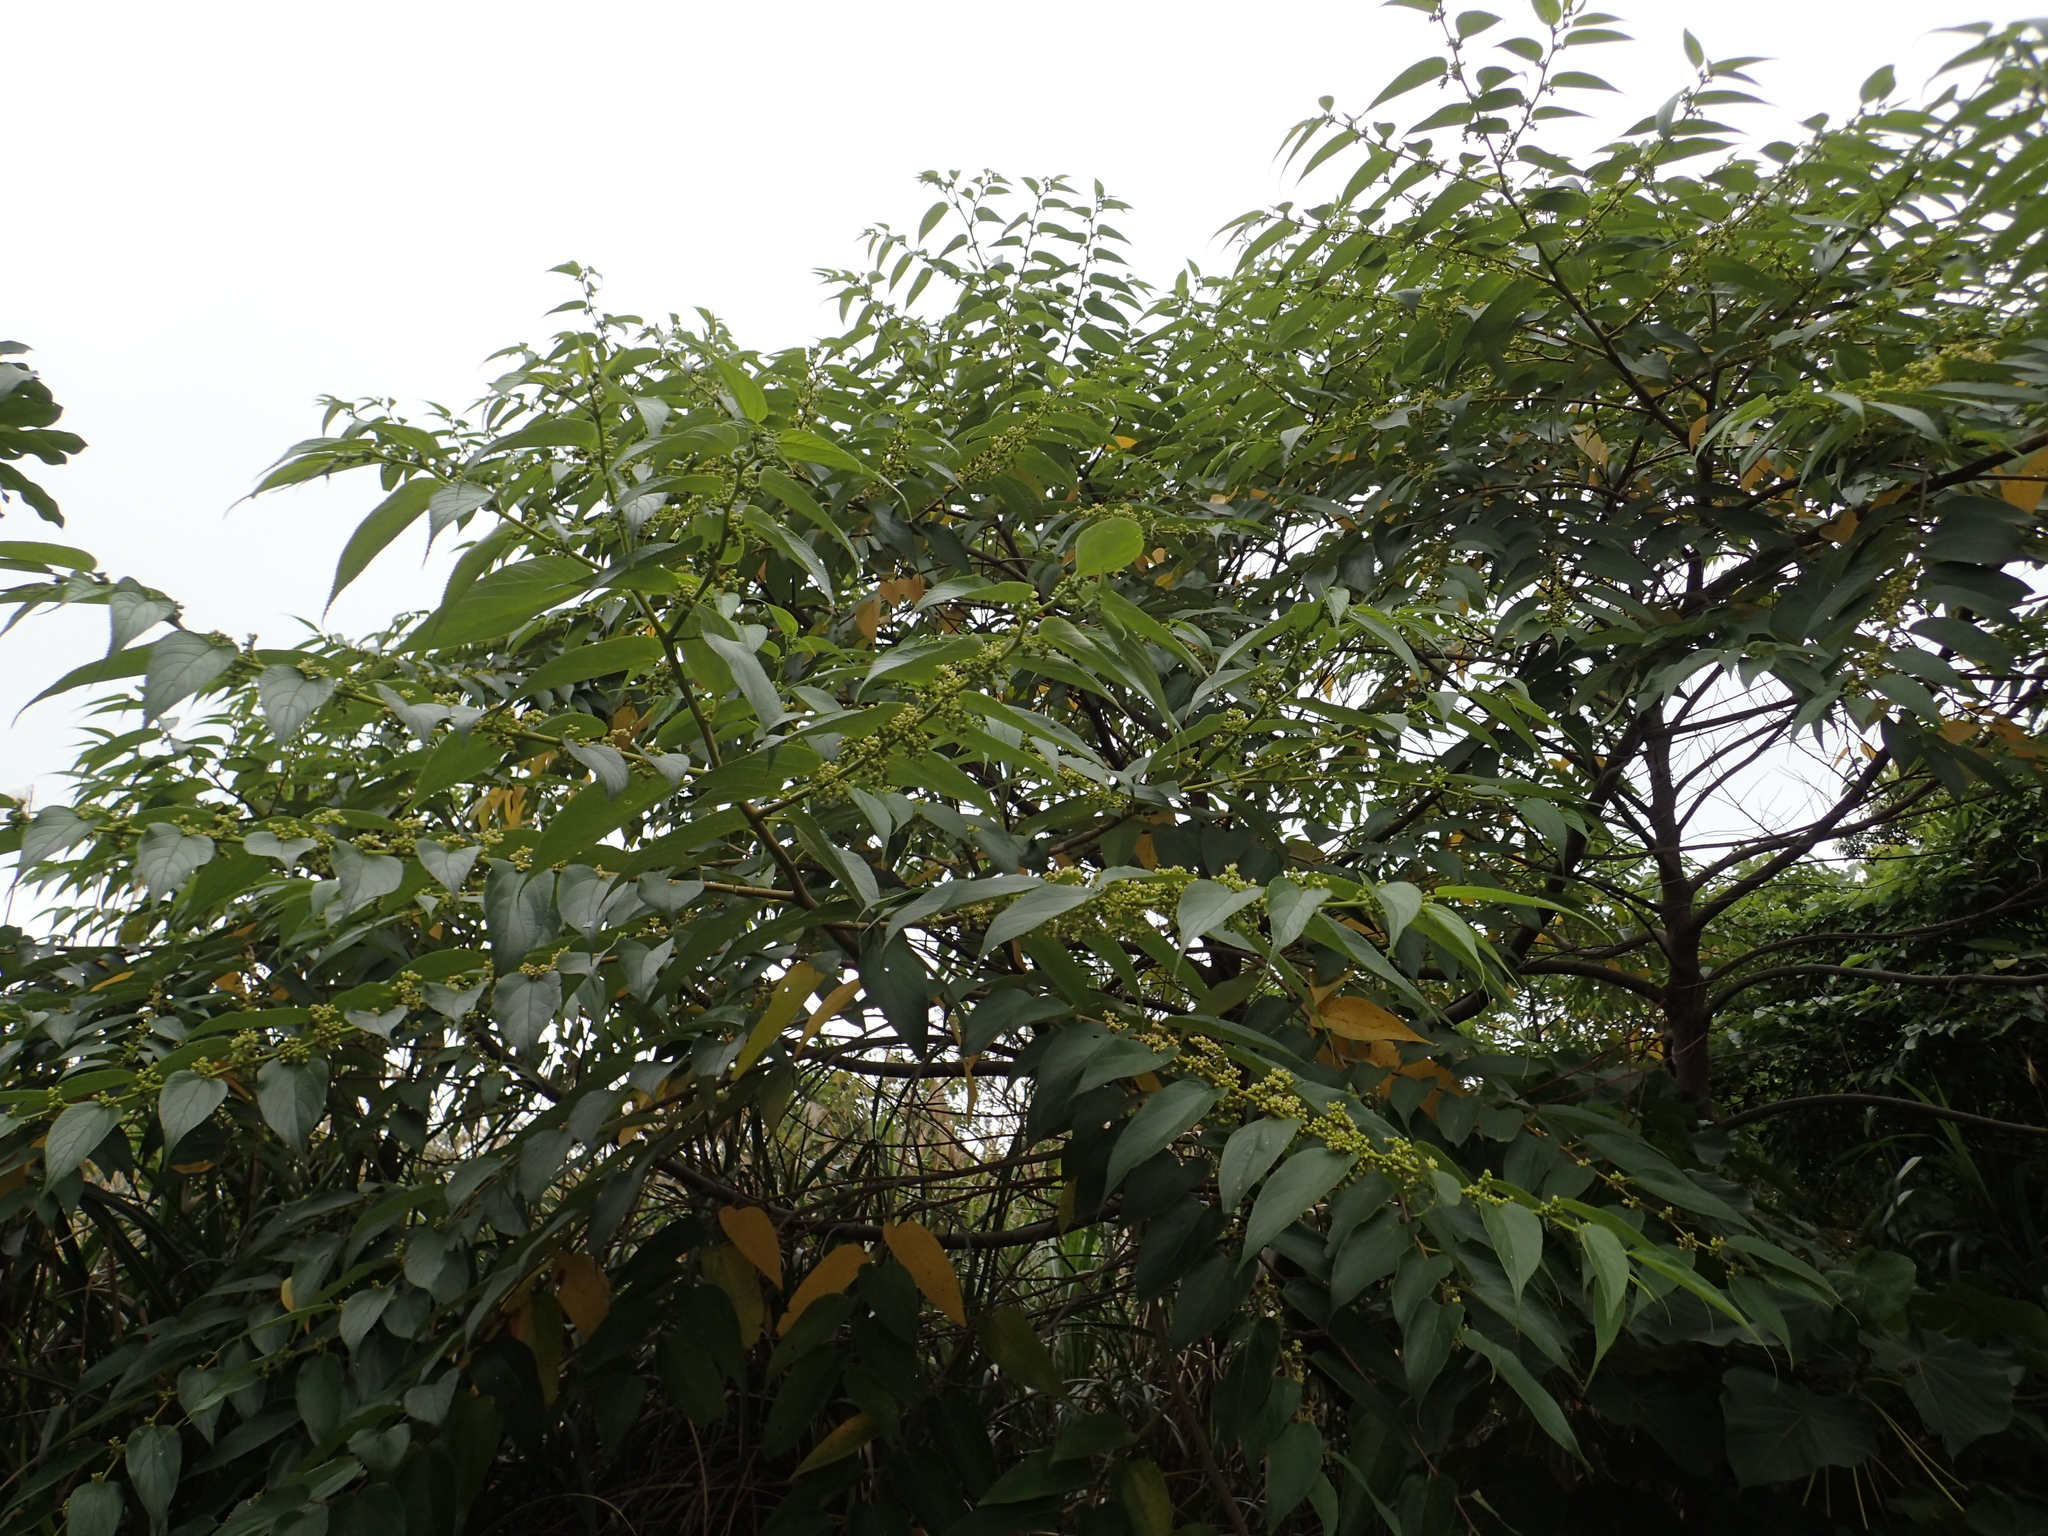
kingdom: Plantae
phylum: Tracheophyta
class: Magnoliopsida
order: Rosales
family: Cannabaceae
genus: Trema
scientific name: Trema orientale
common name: Indian charcoal tree
